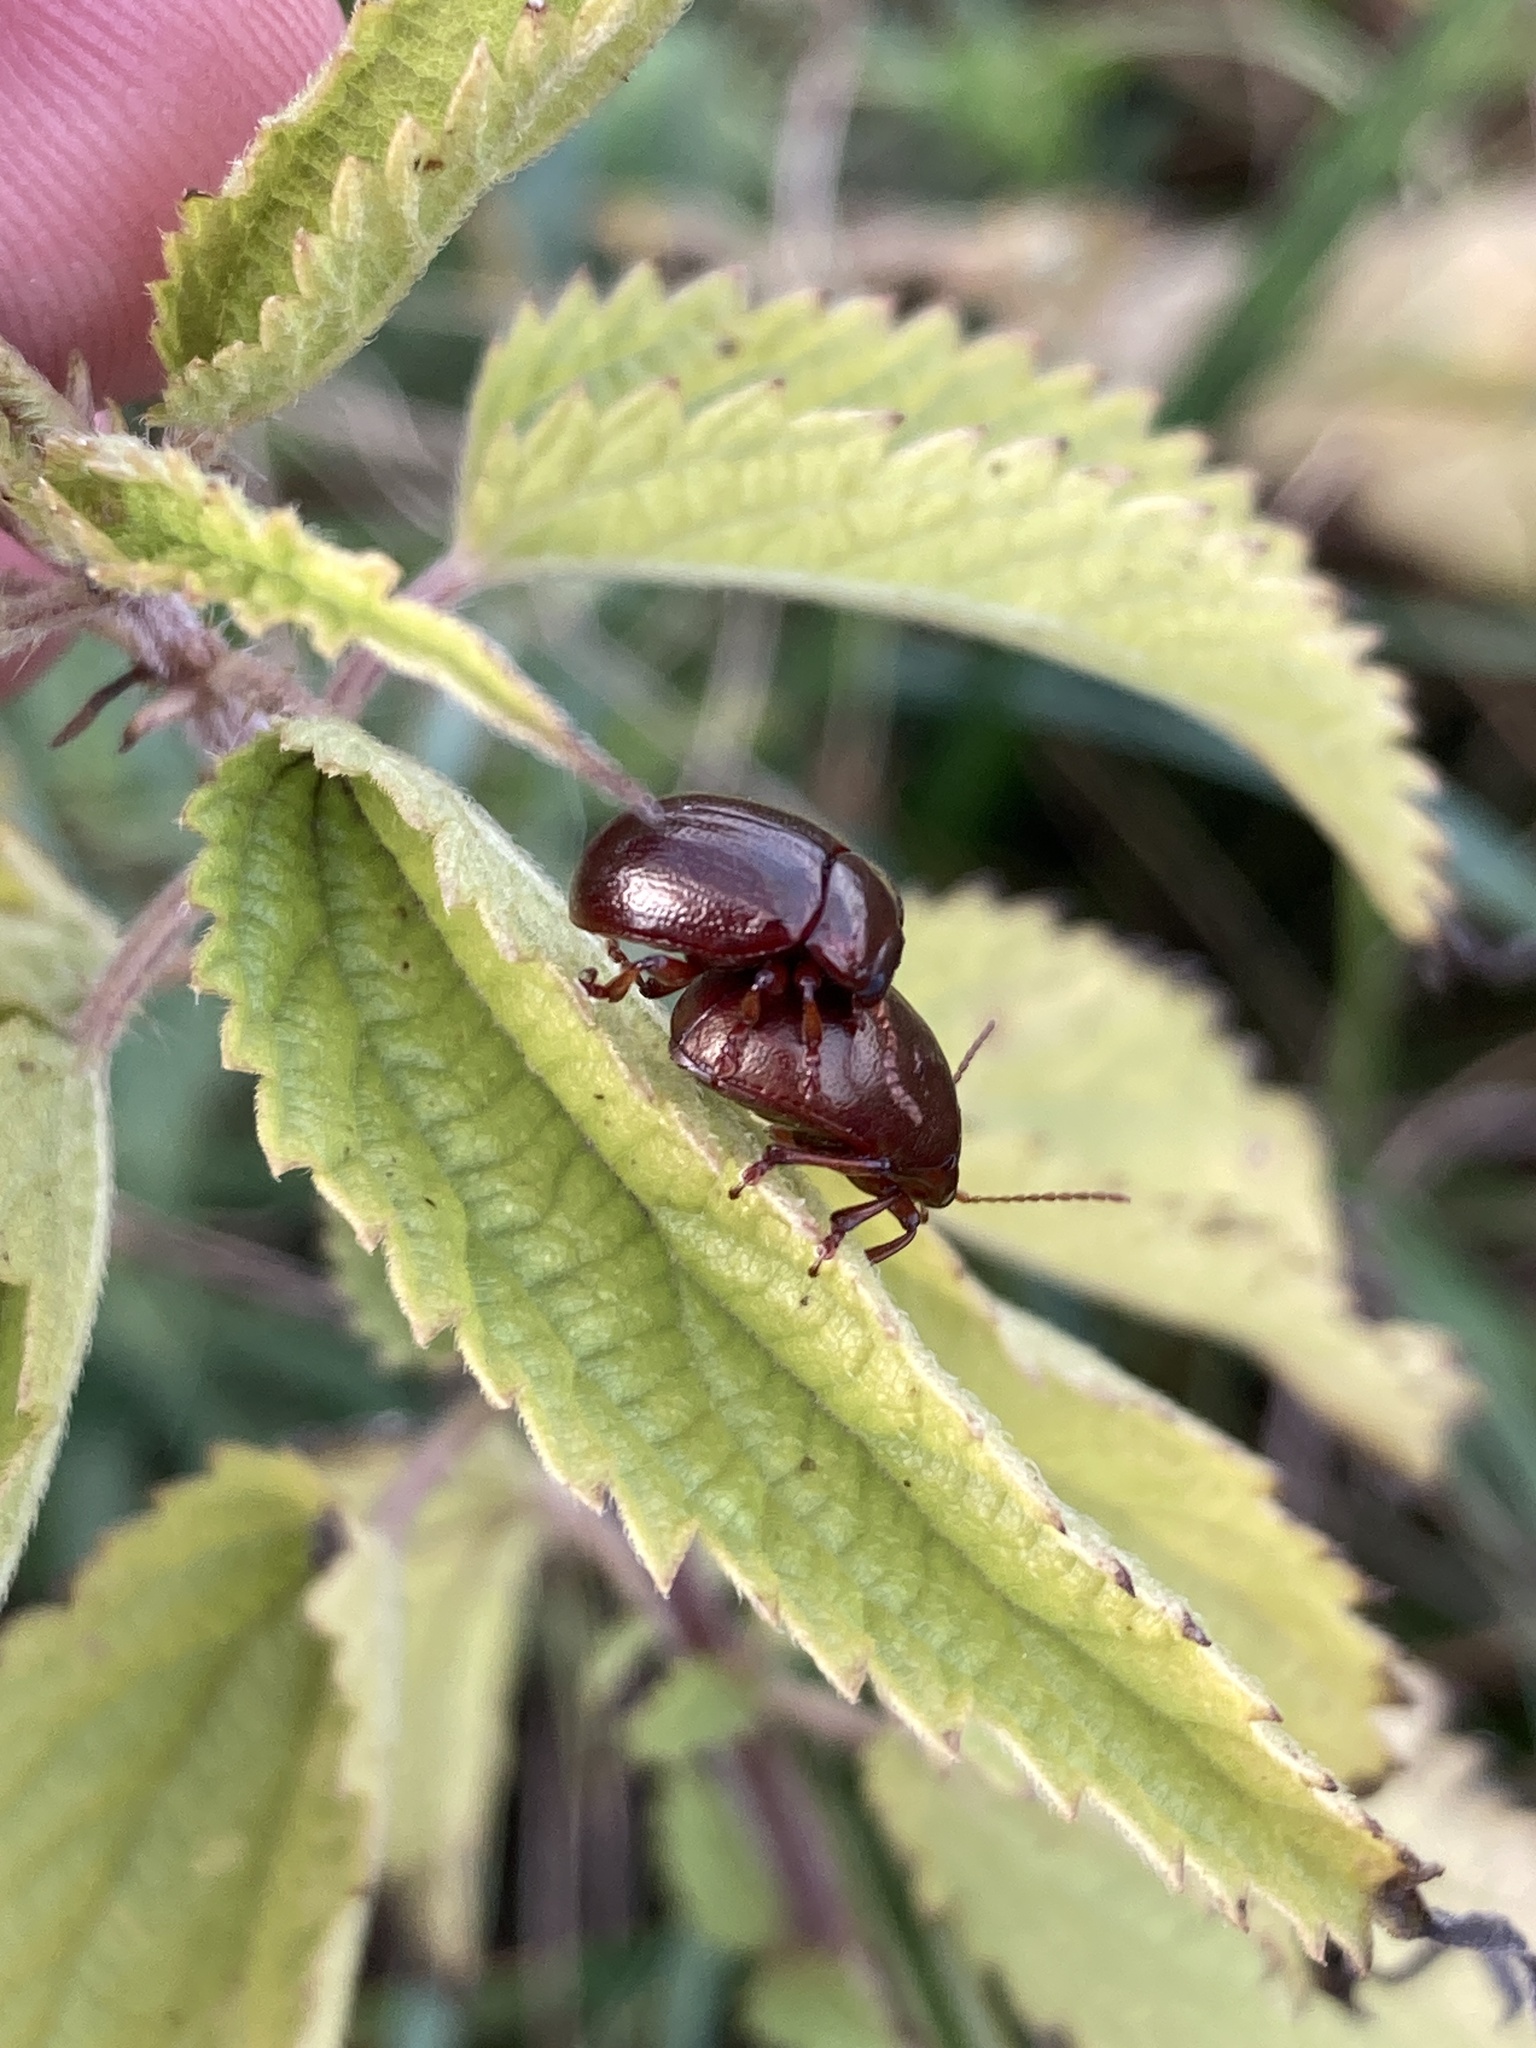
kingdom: Animalia
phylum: Arthropoda
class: Insecta
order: Coleoptera
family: Chrysomelidae
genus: Chrysolina
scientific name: Chrysolina staphylaea
